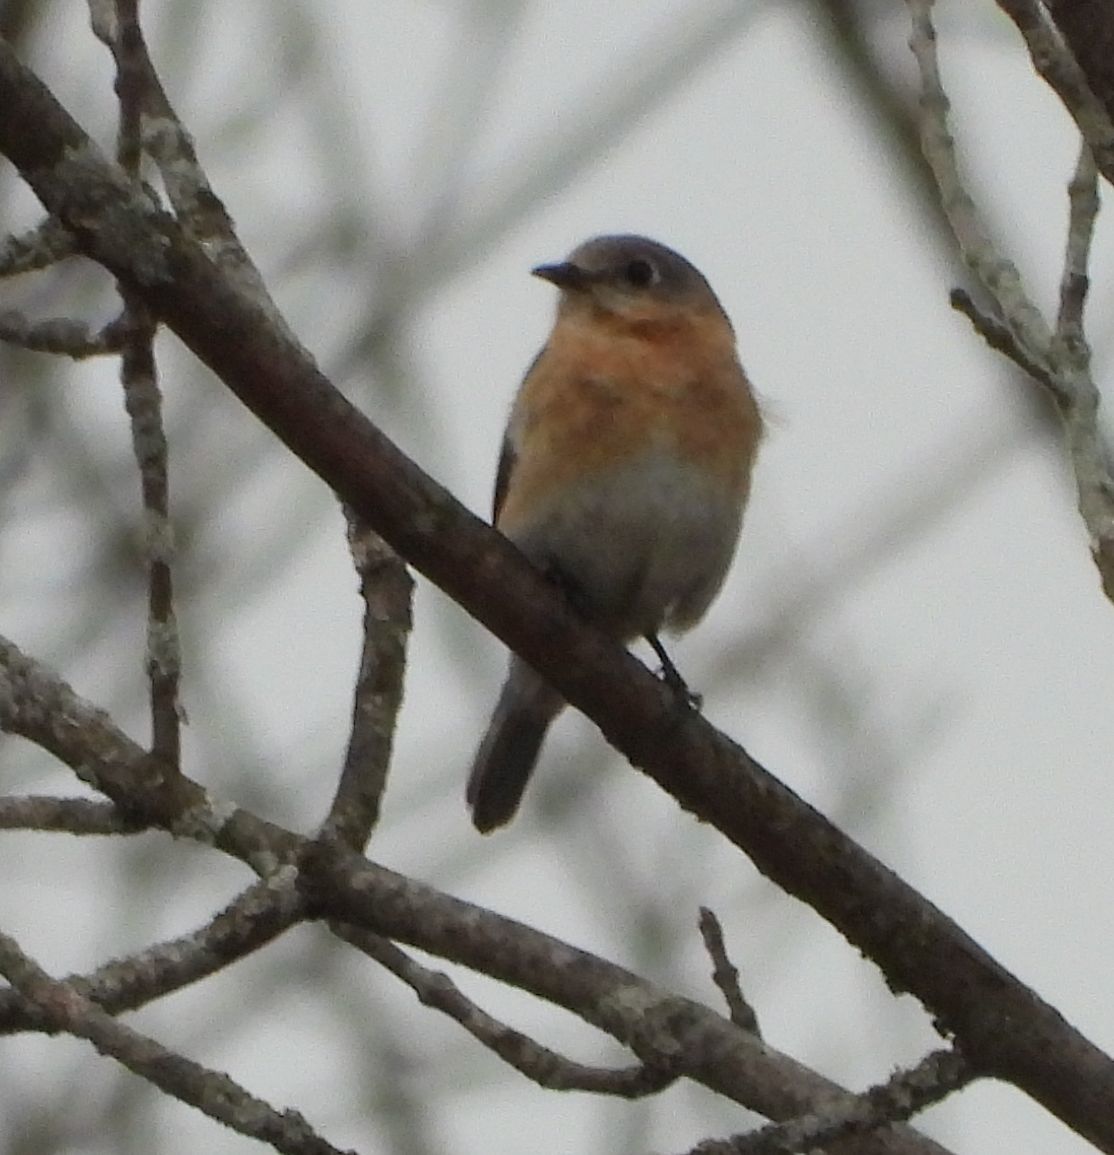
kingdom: Animalia
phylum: Chordata
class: Aves
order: Passeriformes
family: Turdidae
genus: Sialia
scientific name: Sialia sialis
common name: Eastern bluebird
